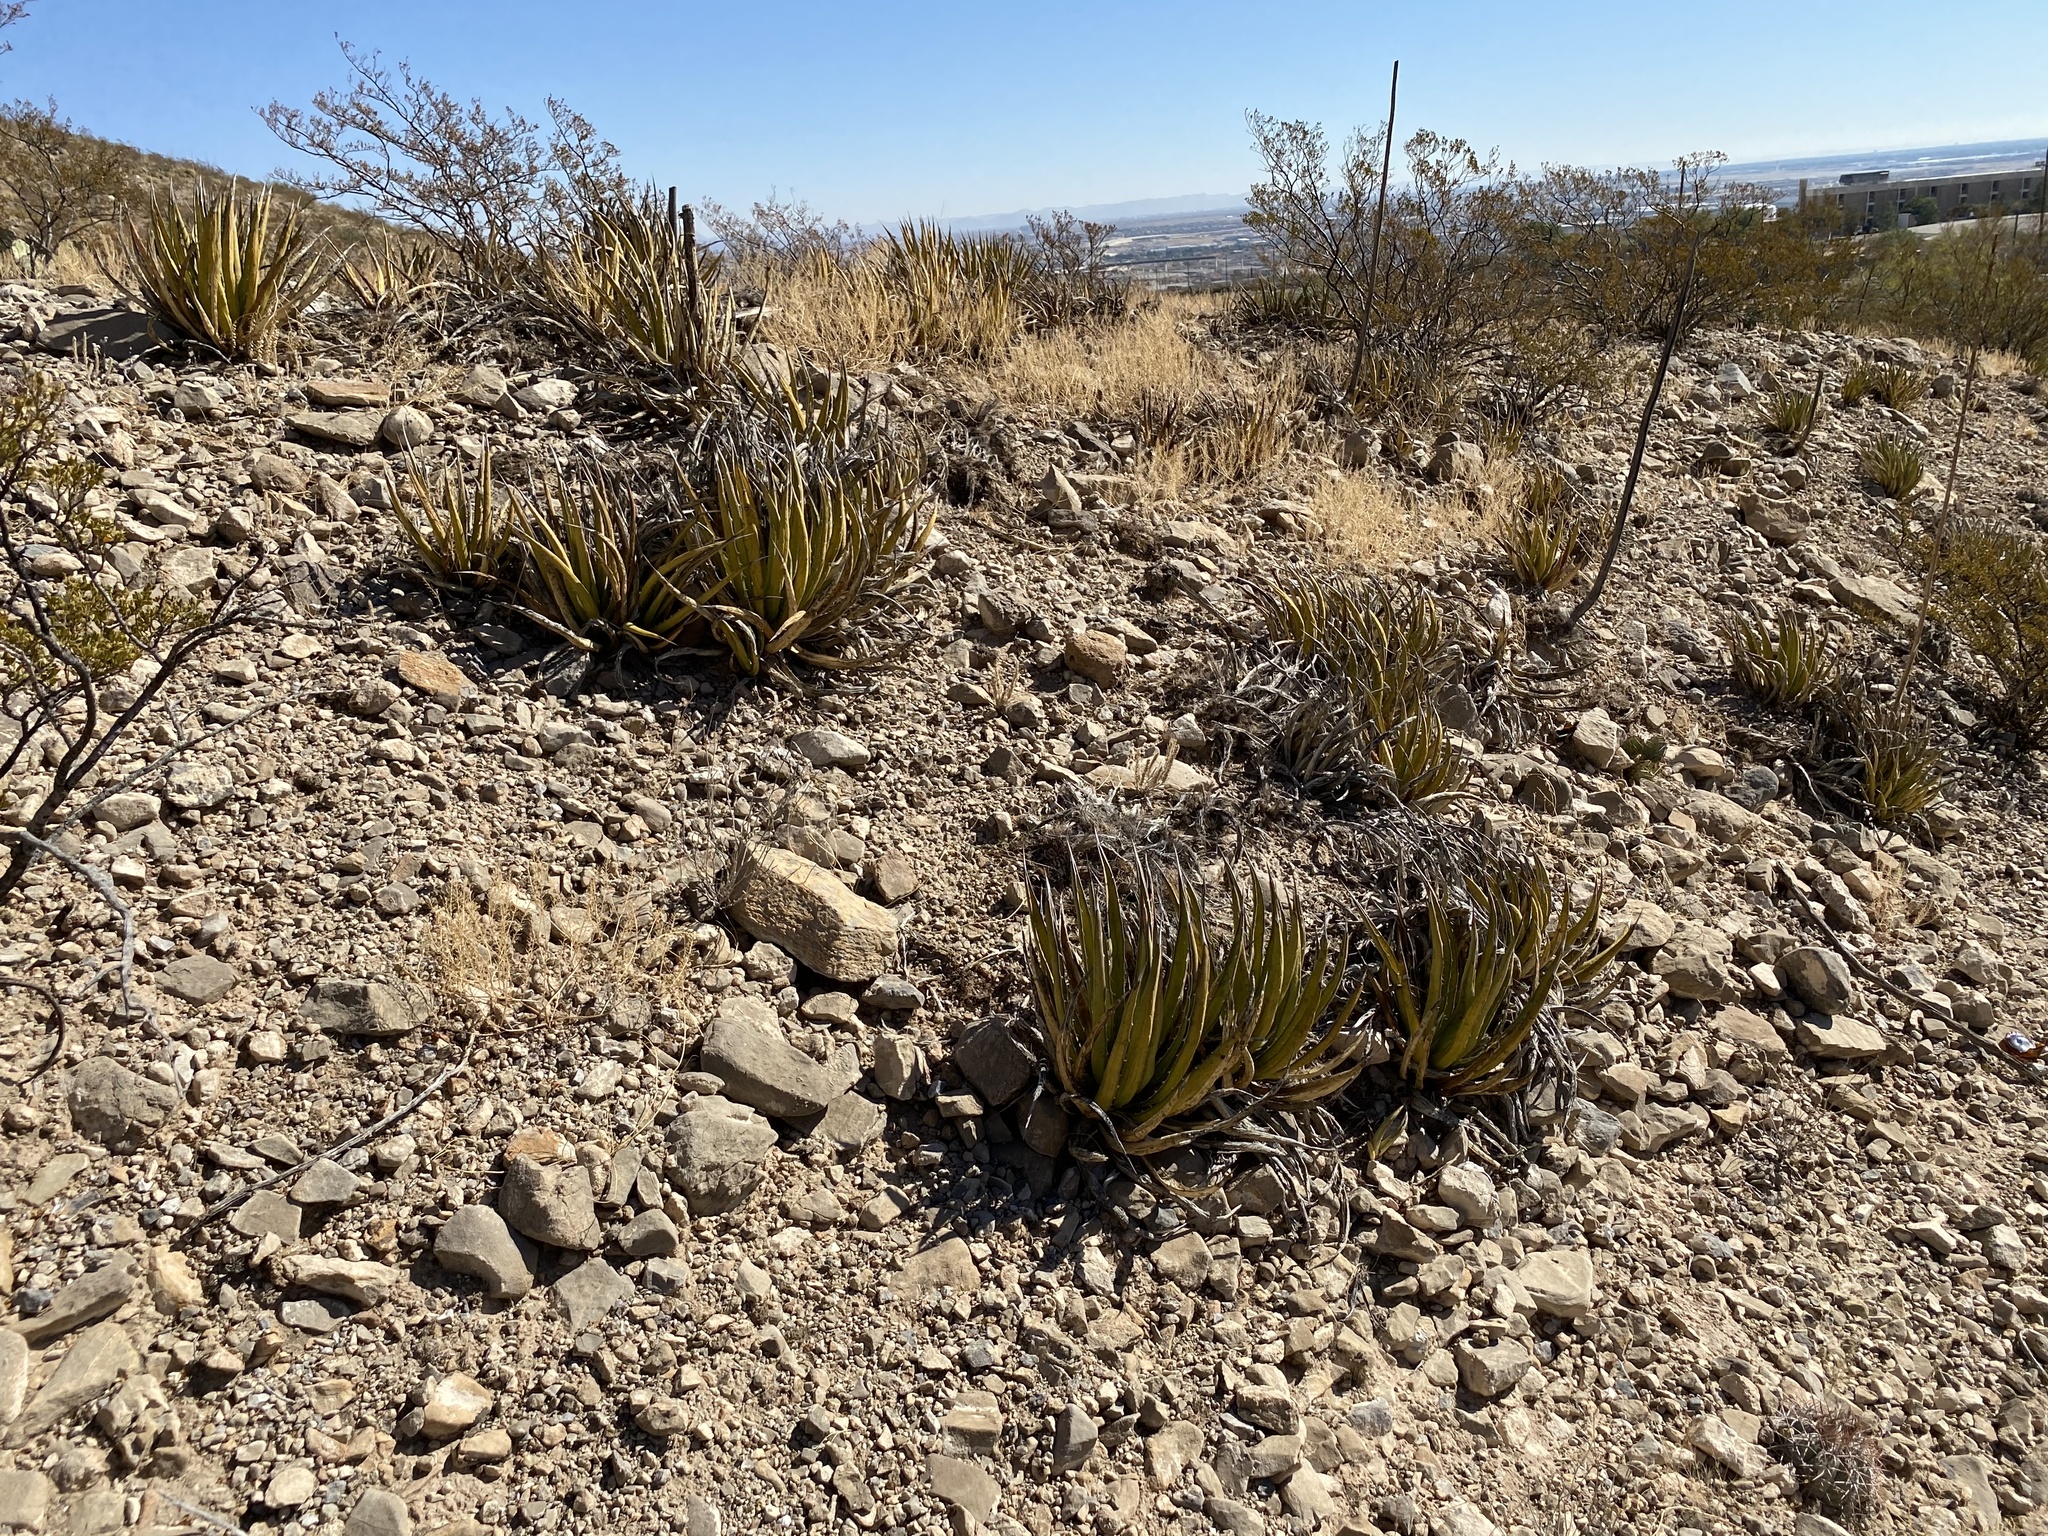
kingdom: Plantae
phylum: Tracheophyta
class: Liliopsida
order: Asparagales
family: Asparagaceae
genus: Agave
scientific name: Agave lechuguilla
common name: Lecheguilla agave
